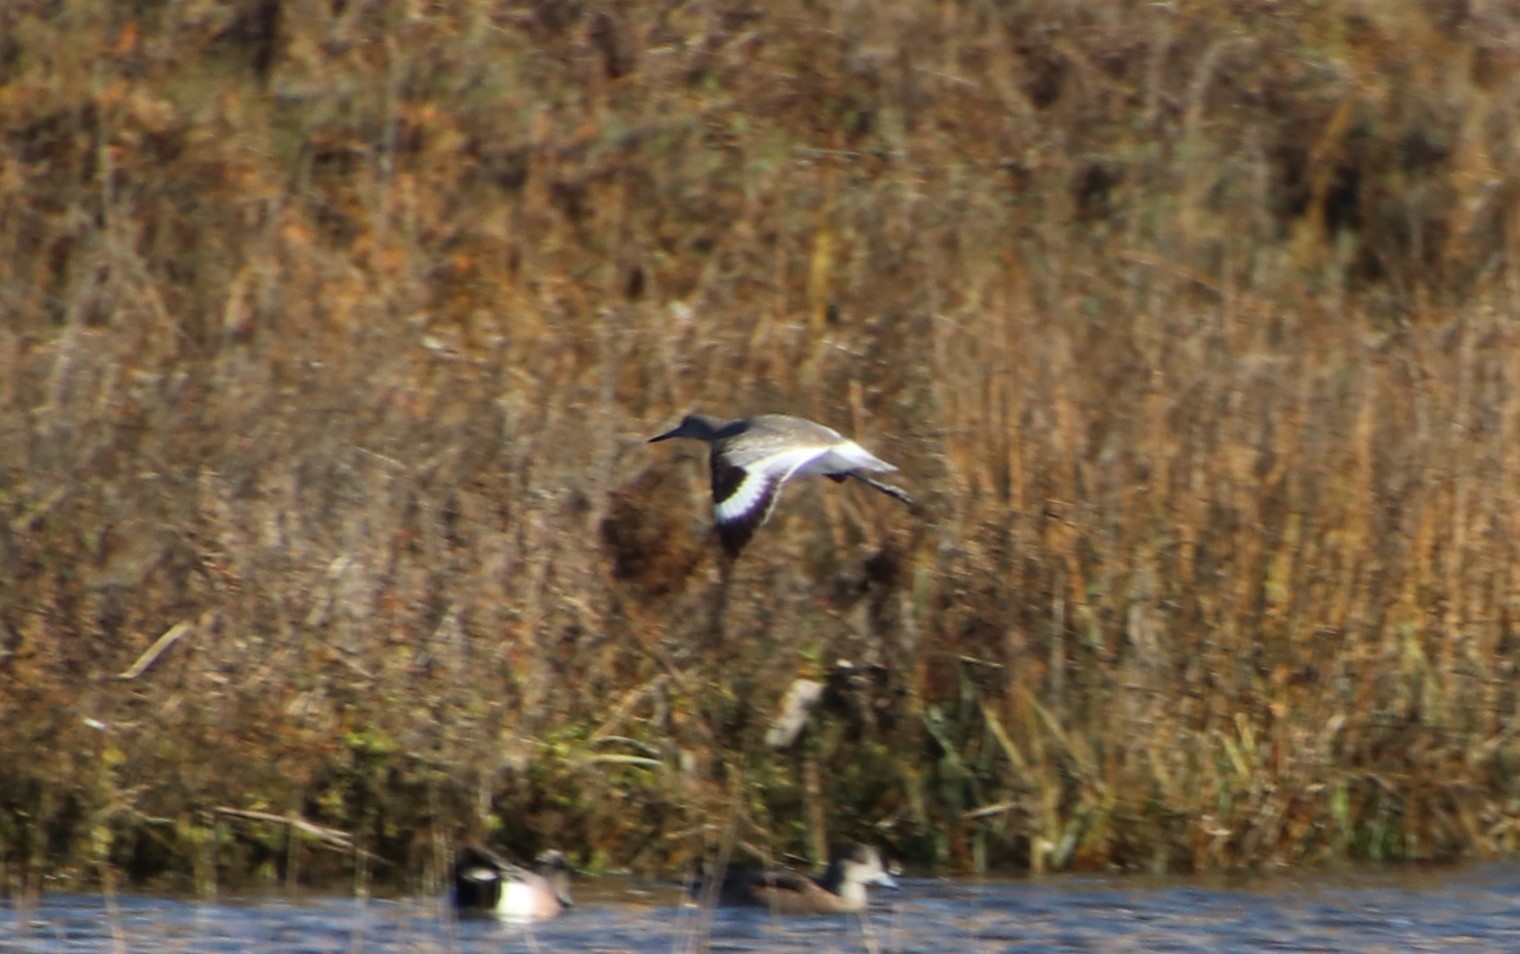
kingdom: Animalia
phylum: Chordata
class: Aves
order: Charadriiformes
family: Scolopacidae
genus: Tringa
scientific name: Tringa semipalmata
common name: Willet
